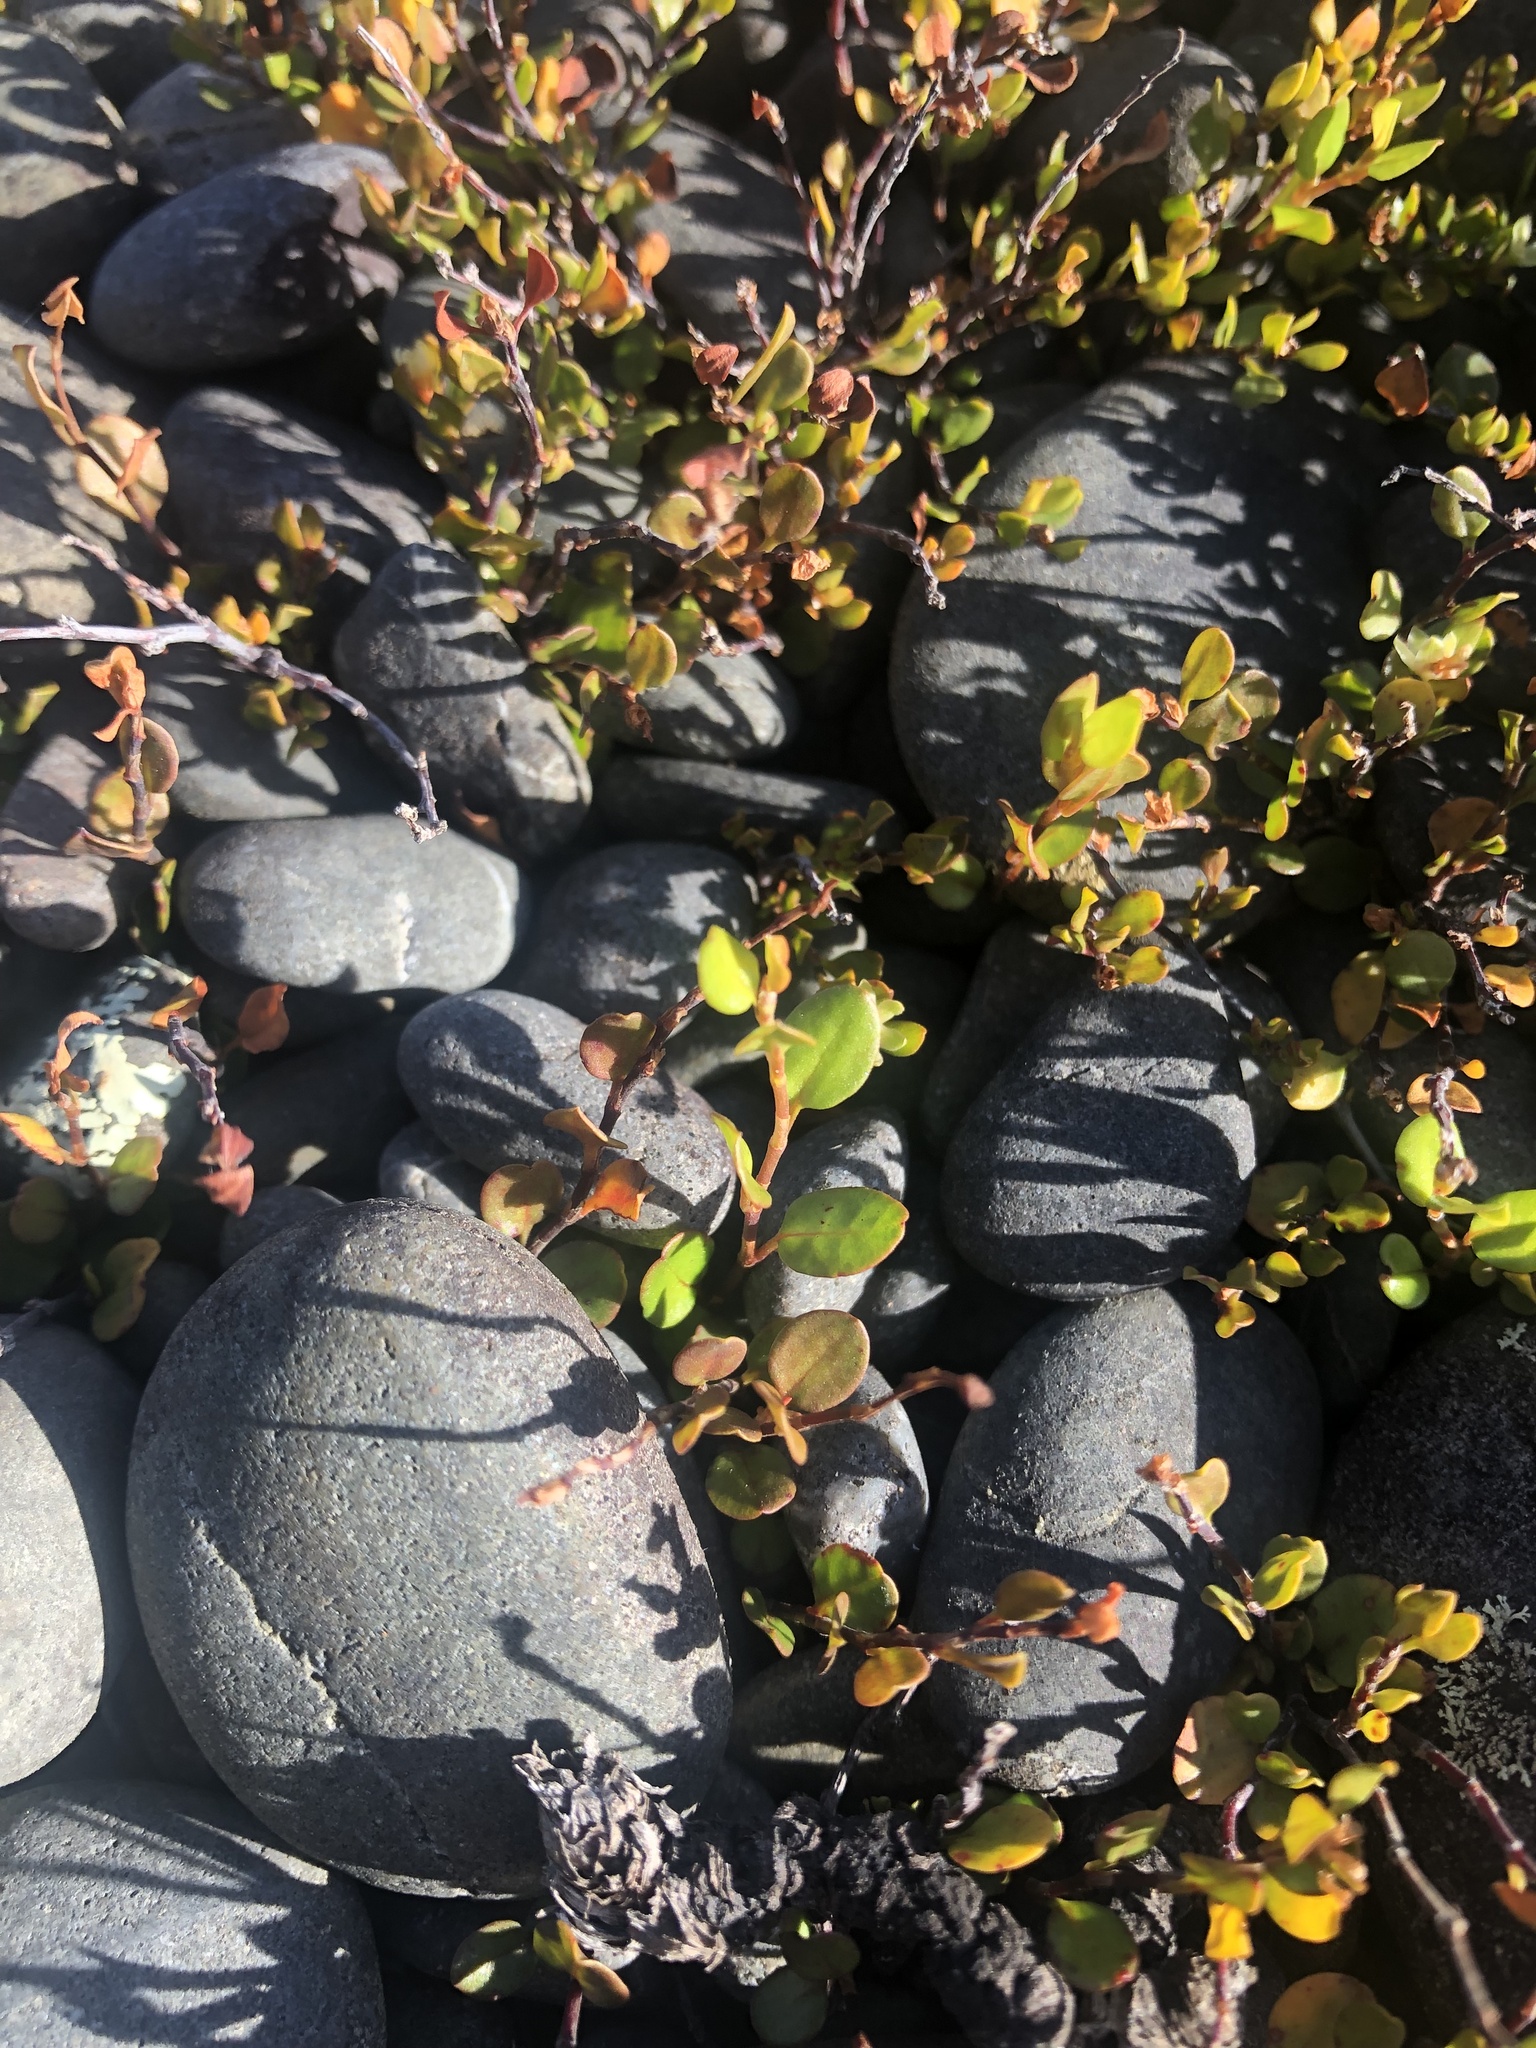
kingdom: Plantae
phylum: Tracheophyta
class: Magnoliopsida
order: Caryophyllales
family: Polygonaceae
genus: Muehlenbeckia
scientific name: Muehlenbeckia axillaris
